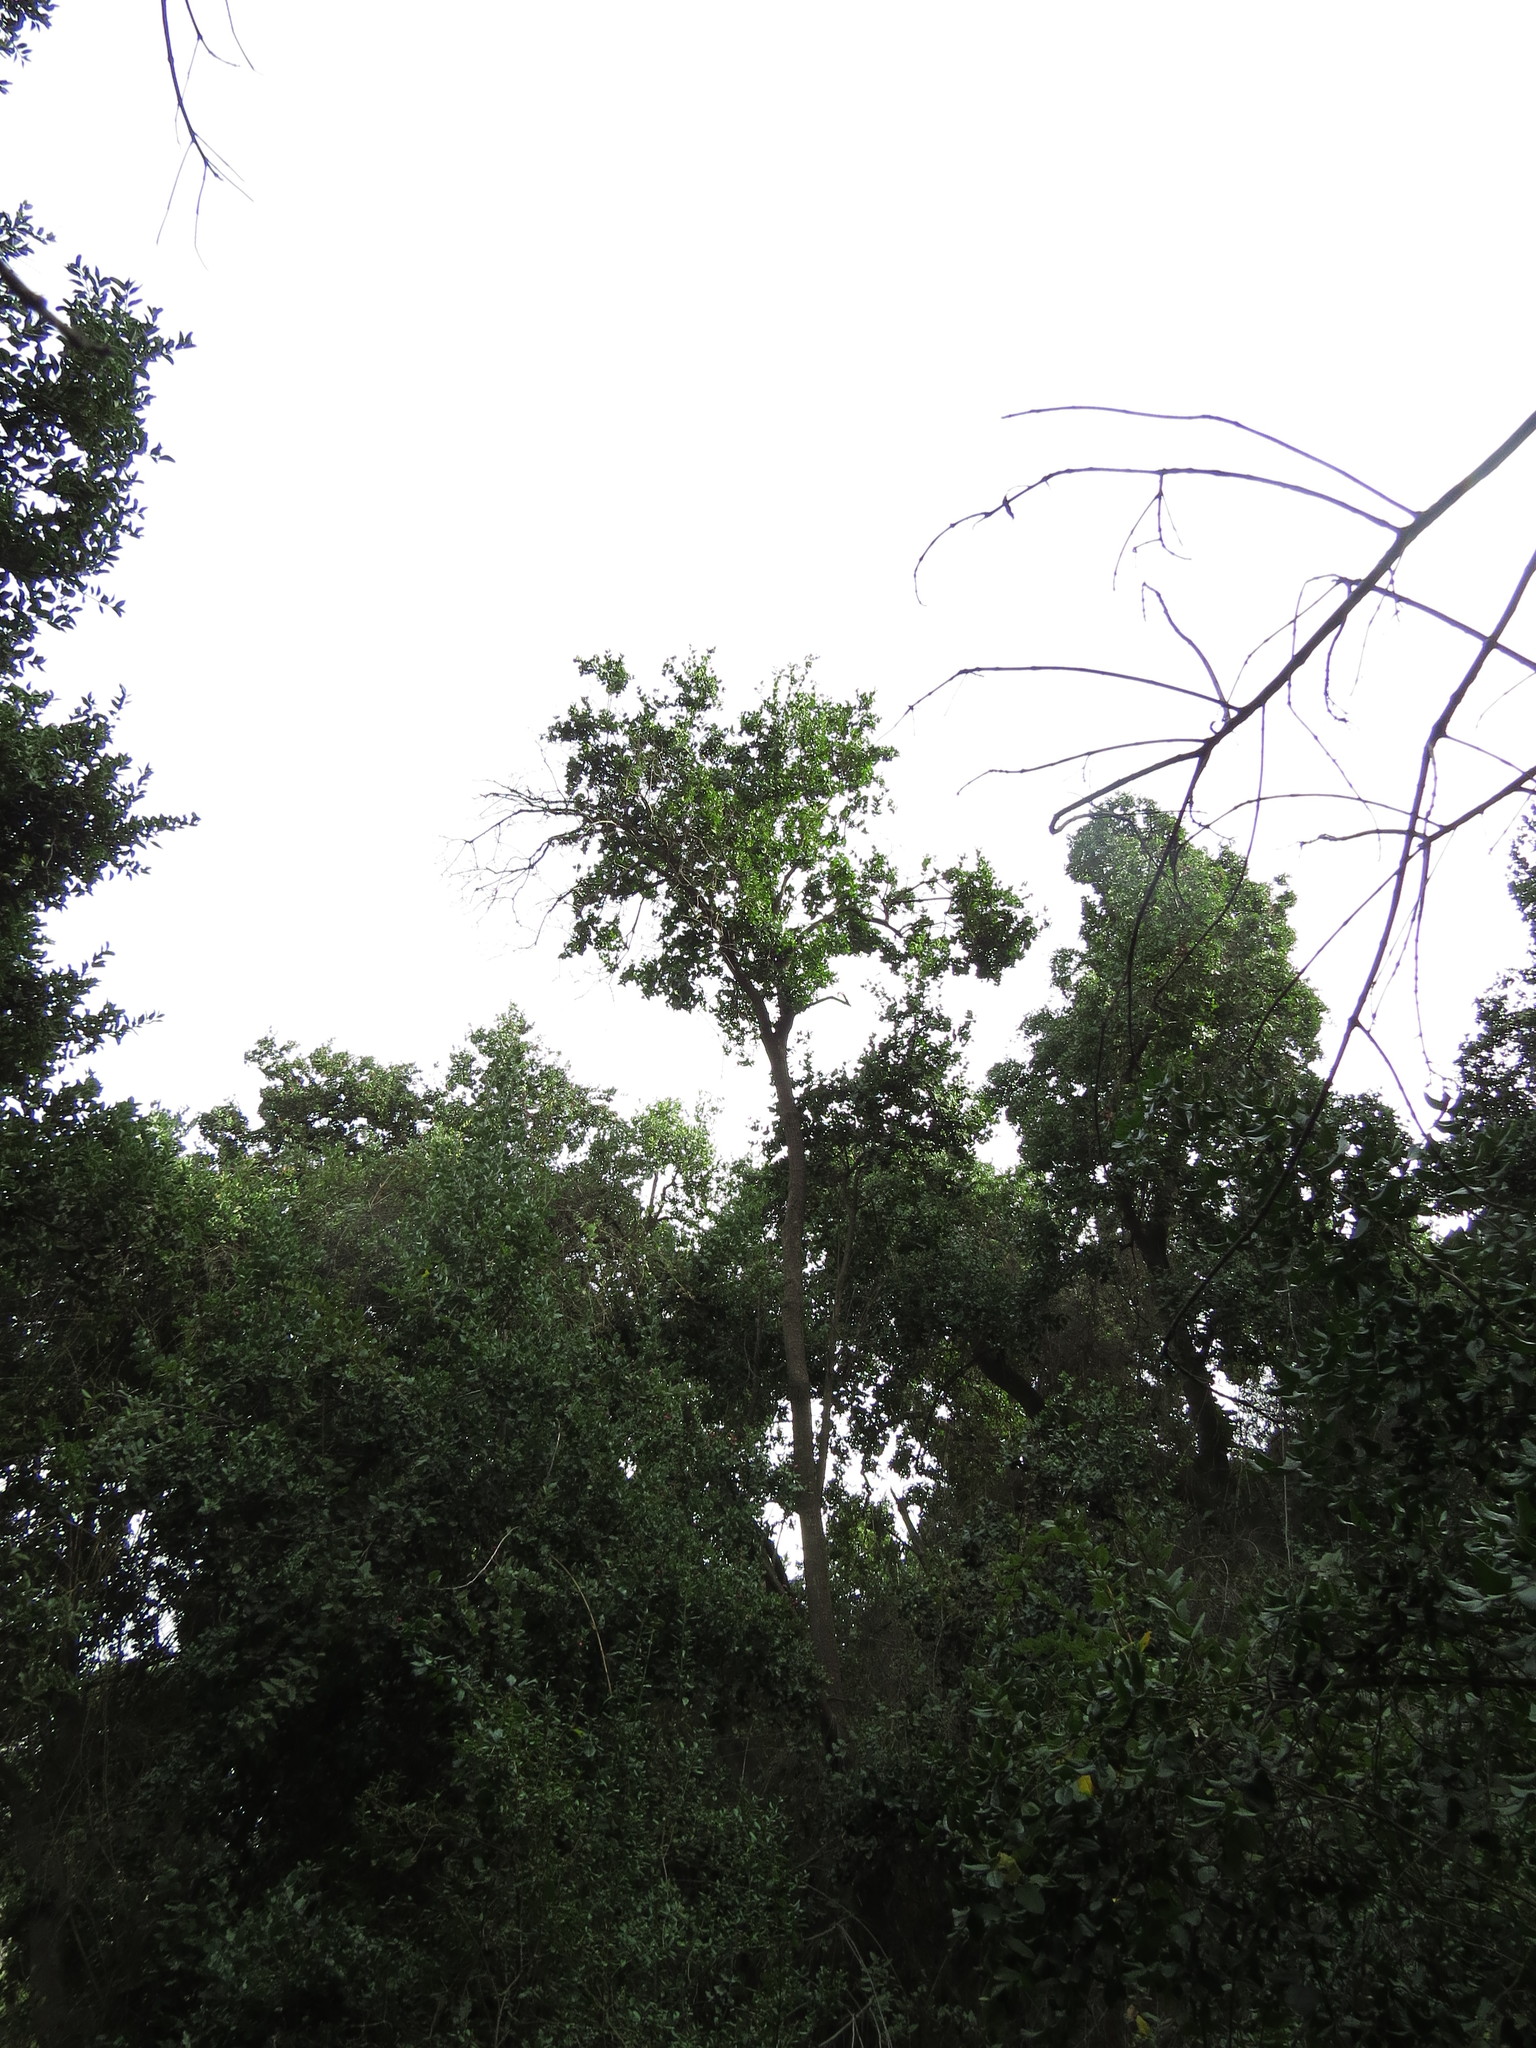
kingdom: Plantae
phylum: Tracheophyta
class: Magnoliopsida
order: Cardiopteridales
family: Cardiopteridaceae
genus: Citronella
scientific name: Citronella mucronata
